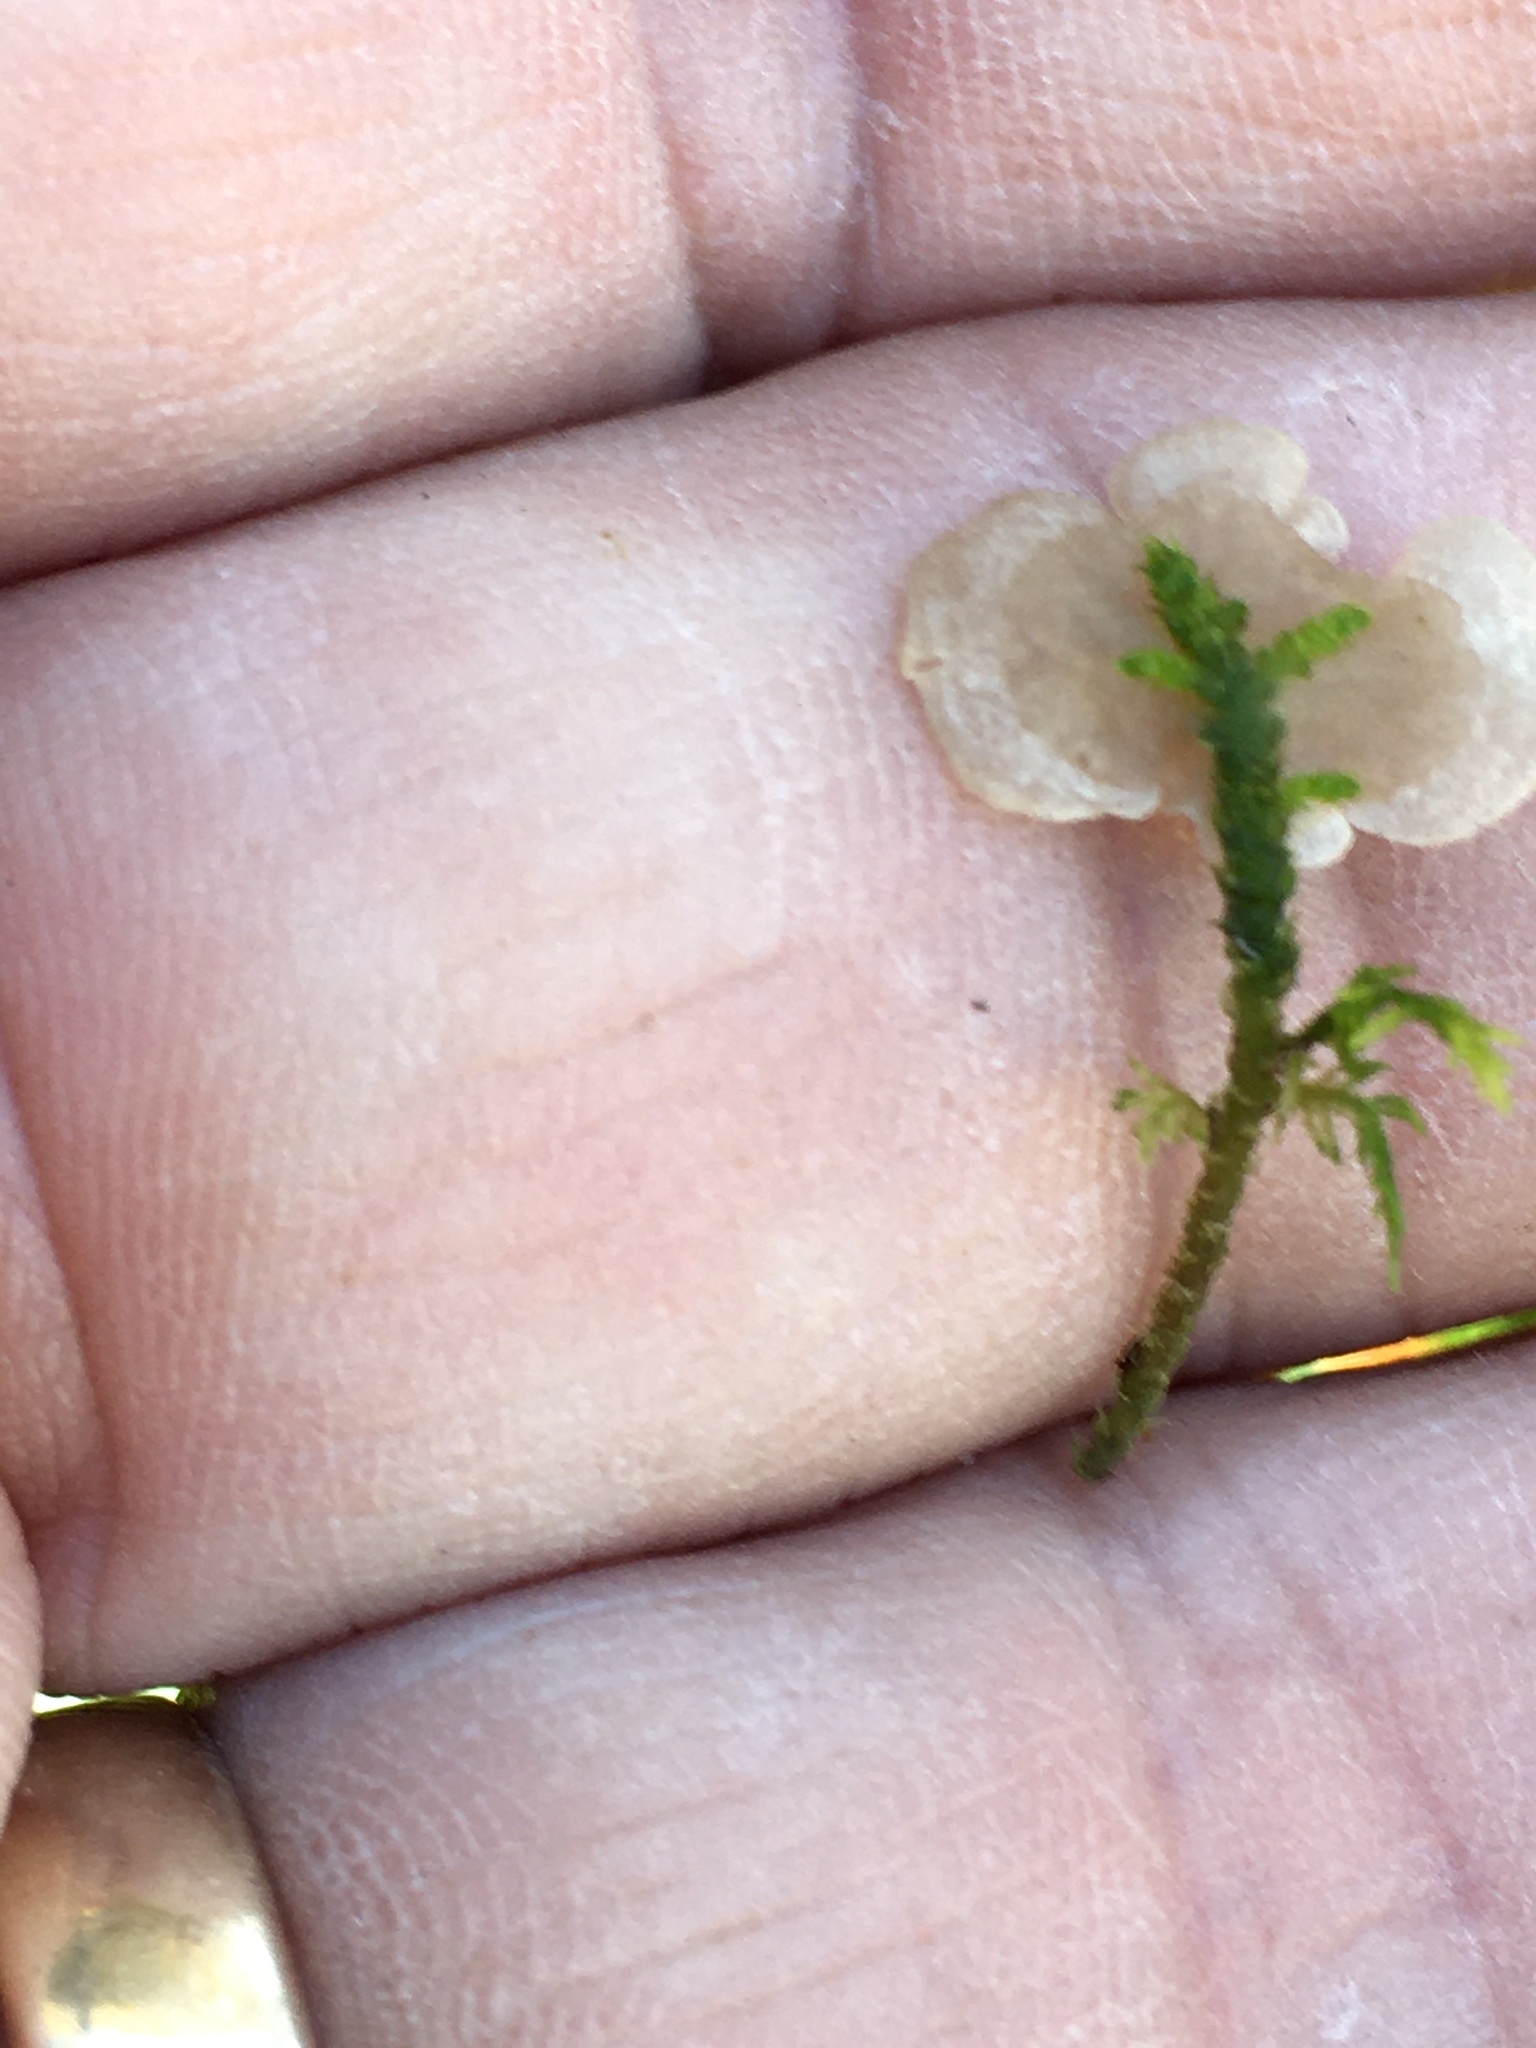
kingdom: Fungi
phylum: Basidiomycota
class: Agaricomycetes
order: Agaricales
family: Hygrophoraceae
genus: Arrhenia
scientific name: Arrhenia retiruga
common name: Small moss oysterling
